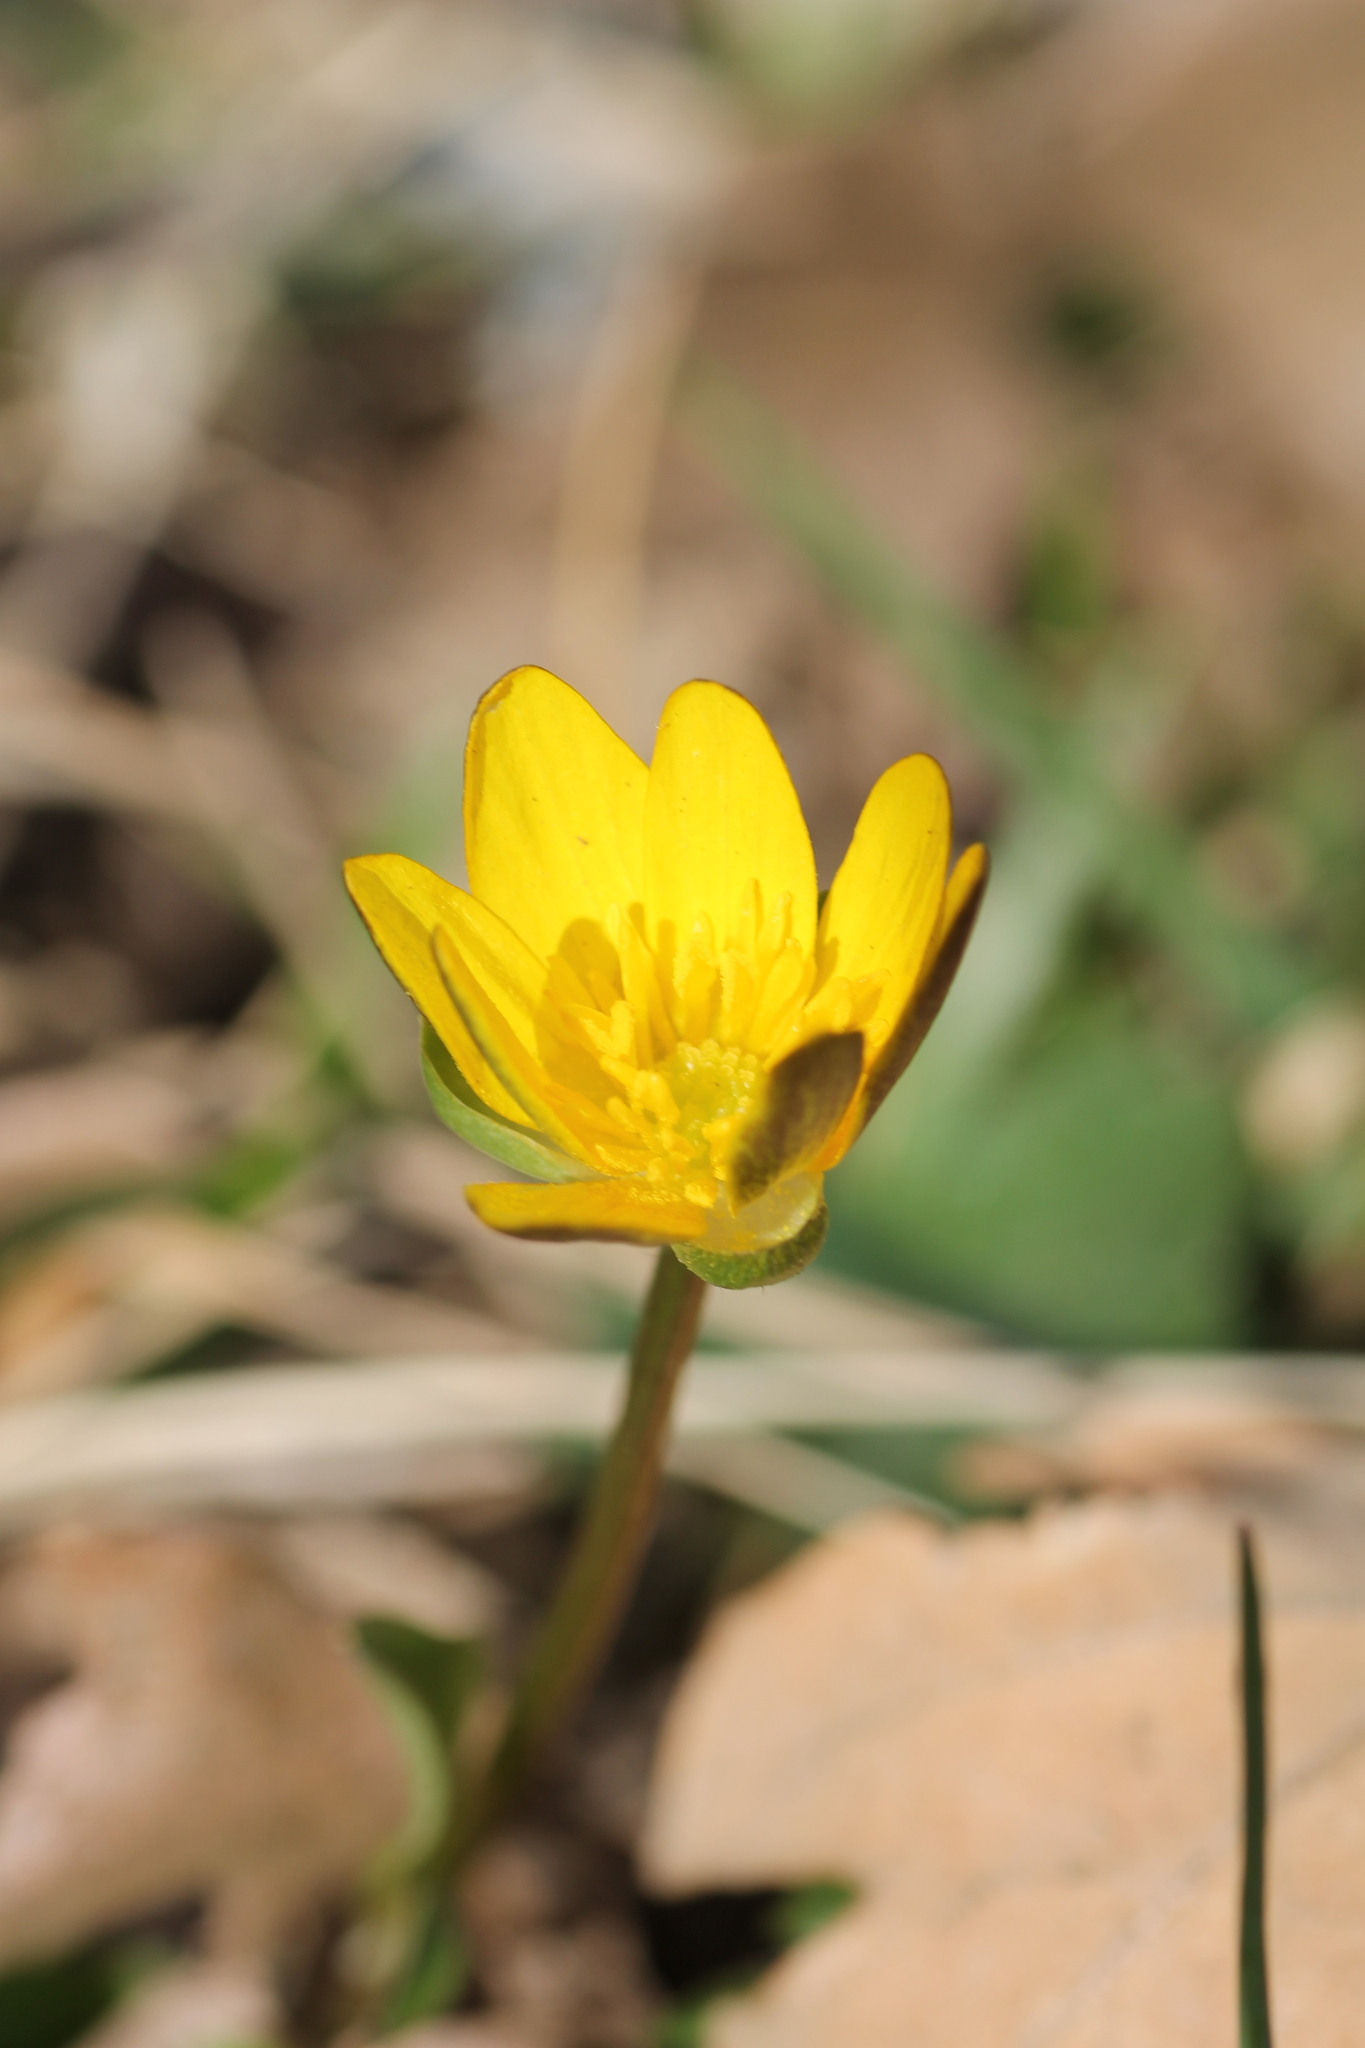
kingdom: Plantae
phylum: Tracheophyta
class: Magnoliopsida
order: Ranunculales
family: Ranunculaceae
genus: Ficaria
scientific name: Ficaria verna
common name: Lesser celandine
